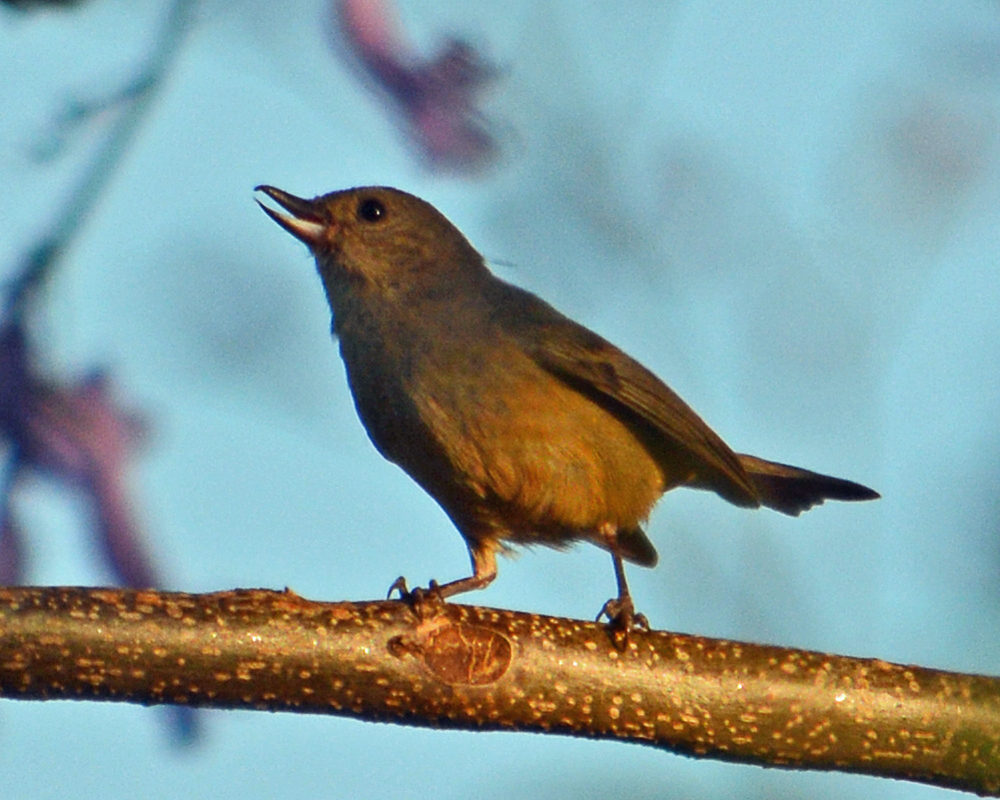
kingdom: Animalia
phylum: Chordata
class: Aves
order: Passeriformes
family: Thraupidae
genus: Diglossa
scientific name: Diglossa baritula
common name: Cinnamon-bellied flowerpiercer
